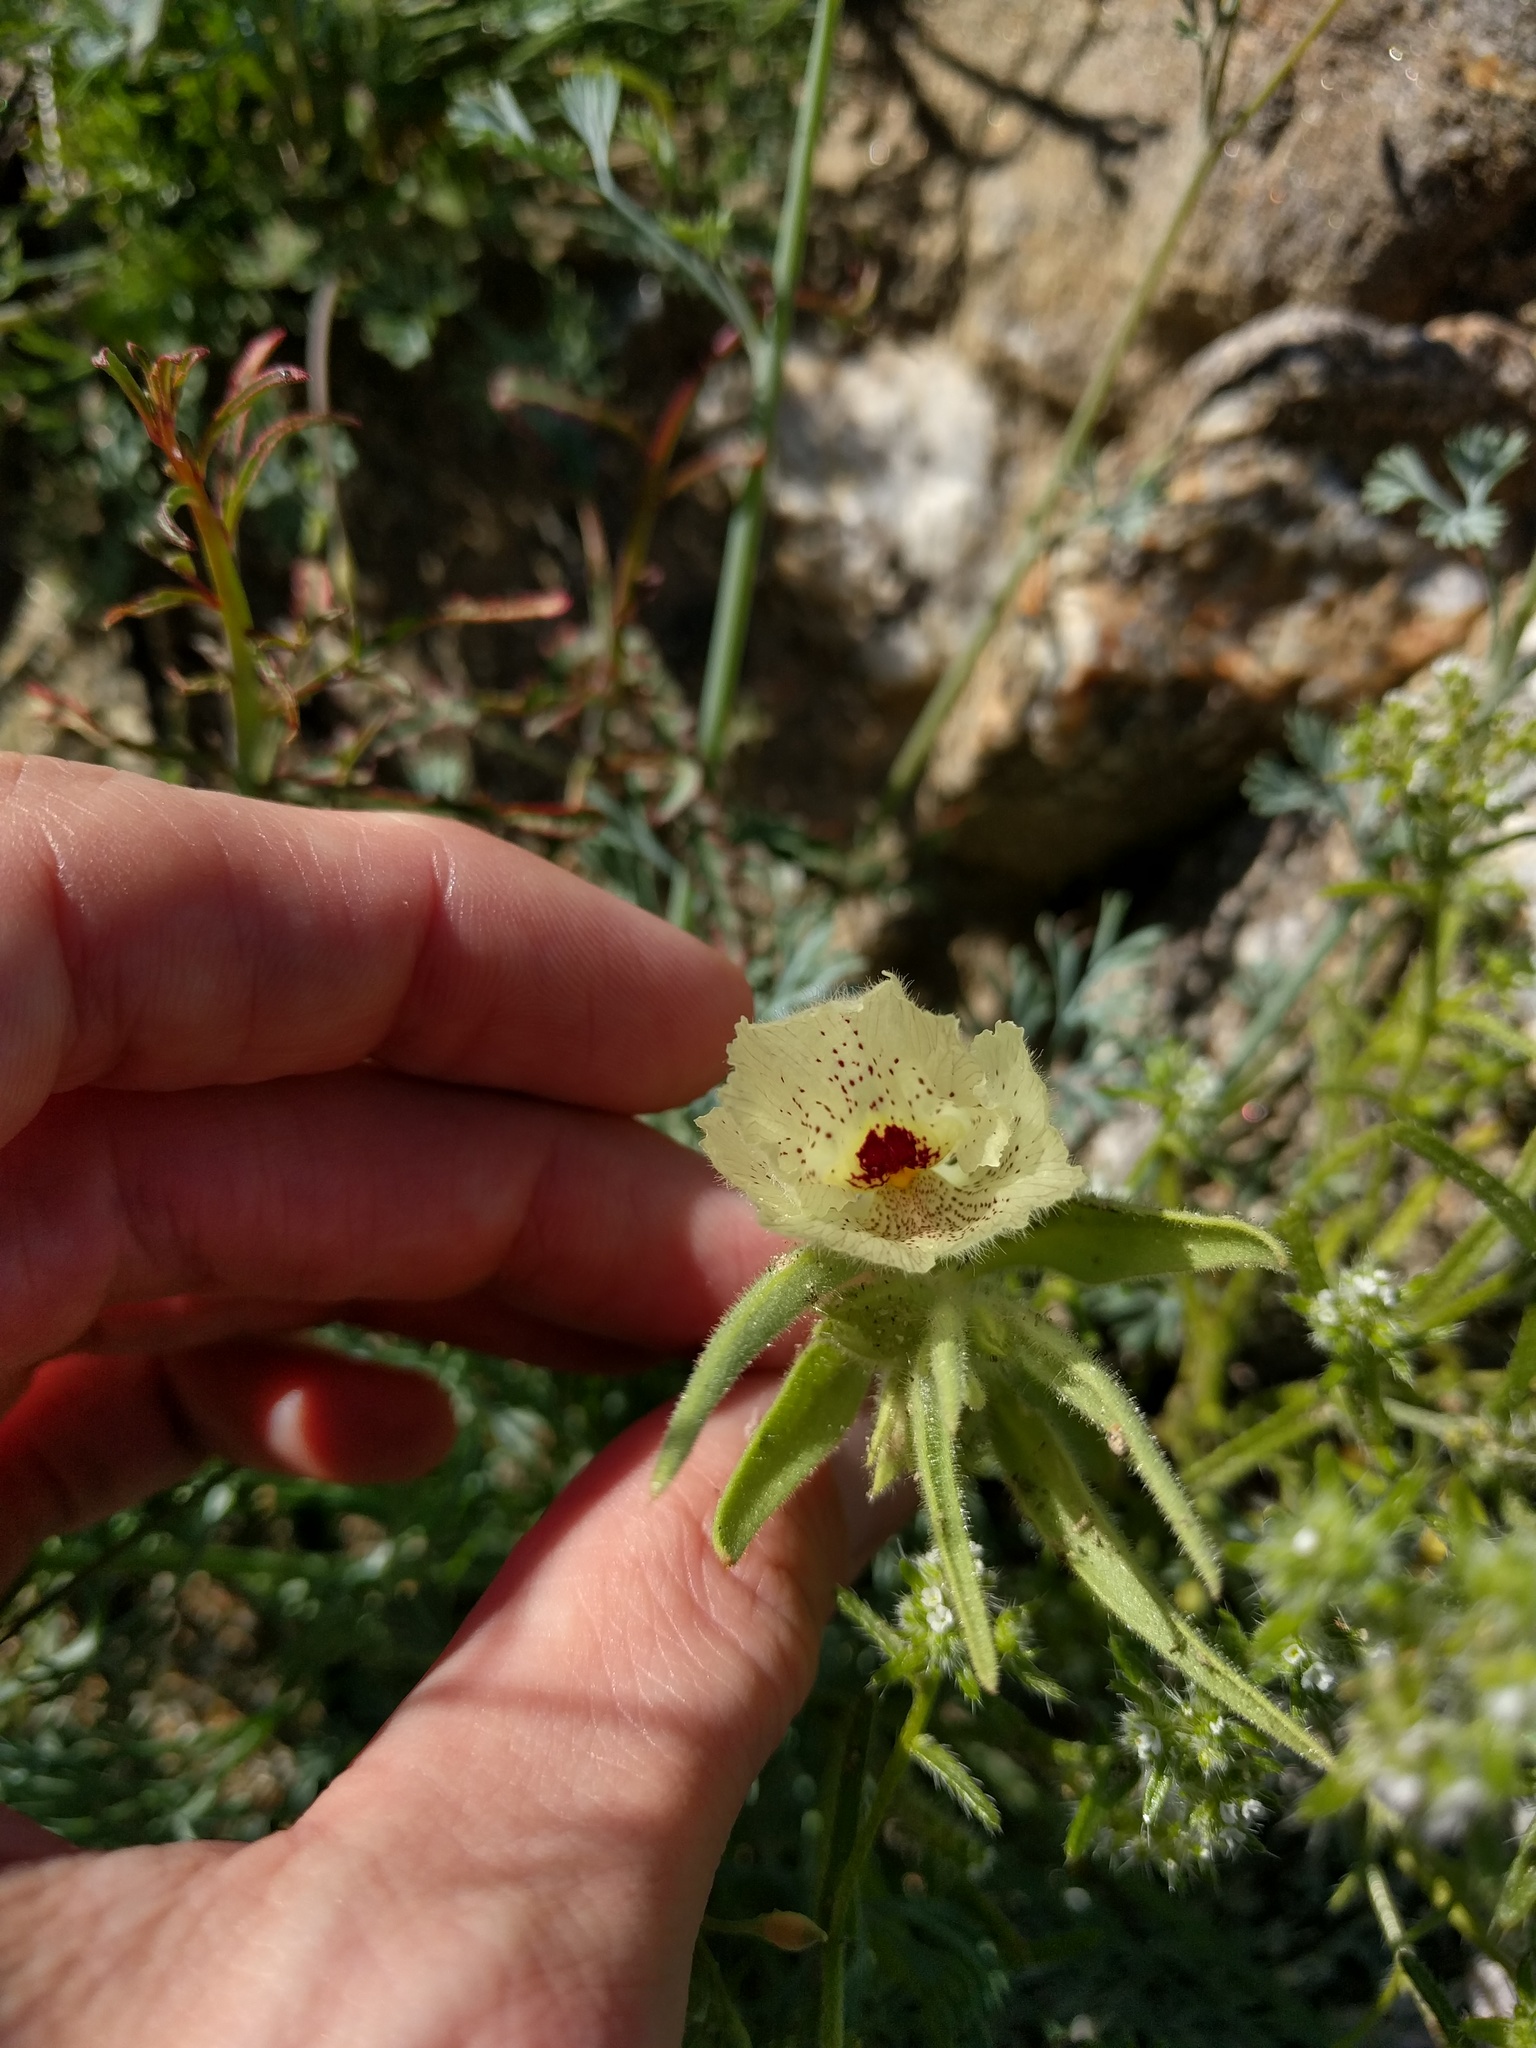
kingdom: Plantae
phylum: Tracheophyta
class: Magnoliopsida
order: Lamiales
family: Plantaginaceae
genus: Mohavea
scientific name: Mohavea confertiflora
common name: Ghost flower
